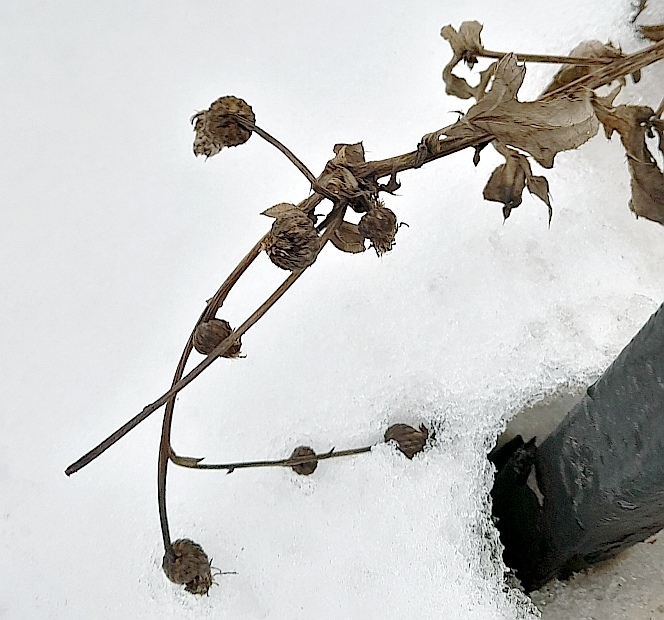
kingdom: Plantae
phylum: Tracheophyta
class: Magnoliopsida
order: Asterales
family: Asteraceae
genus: Cirsium
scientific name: Cirsium arvense
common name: Creeping thistle
